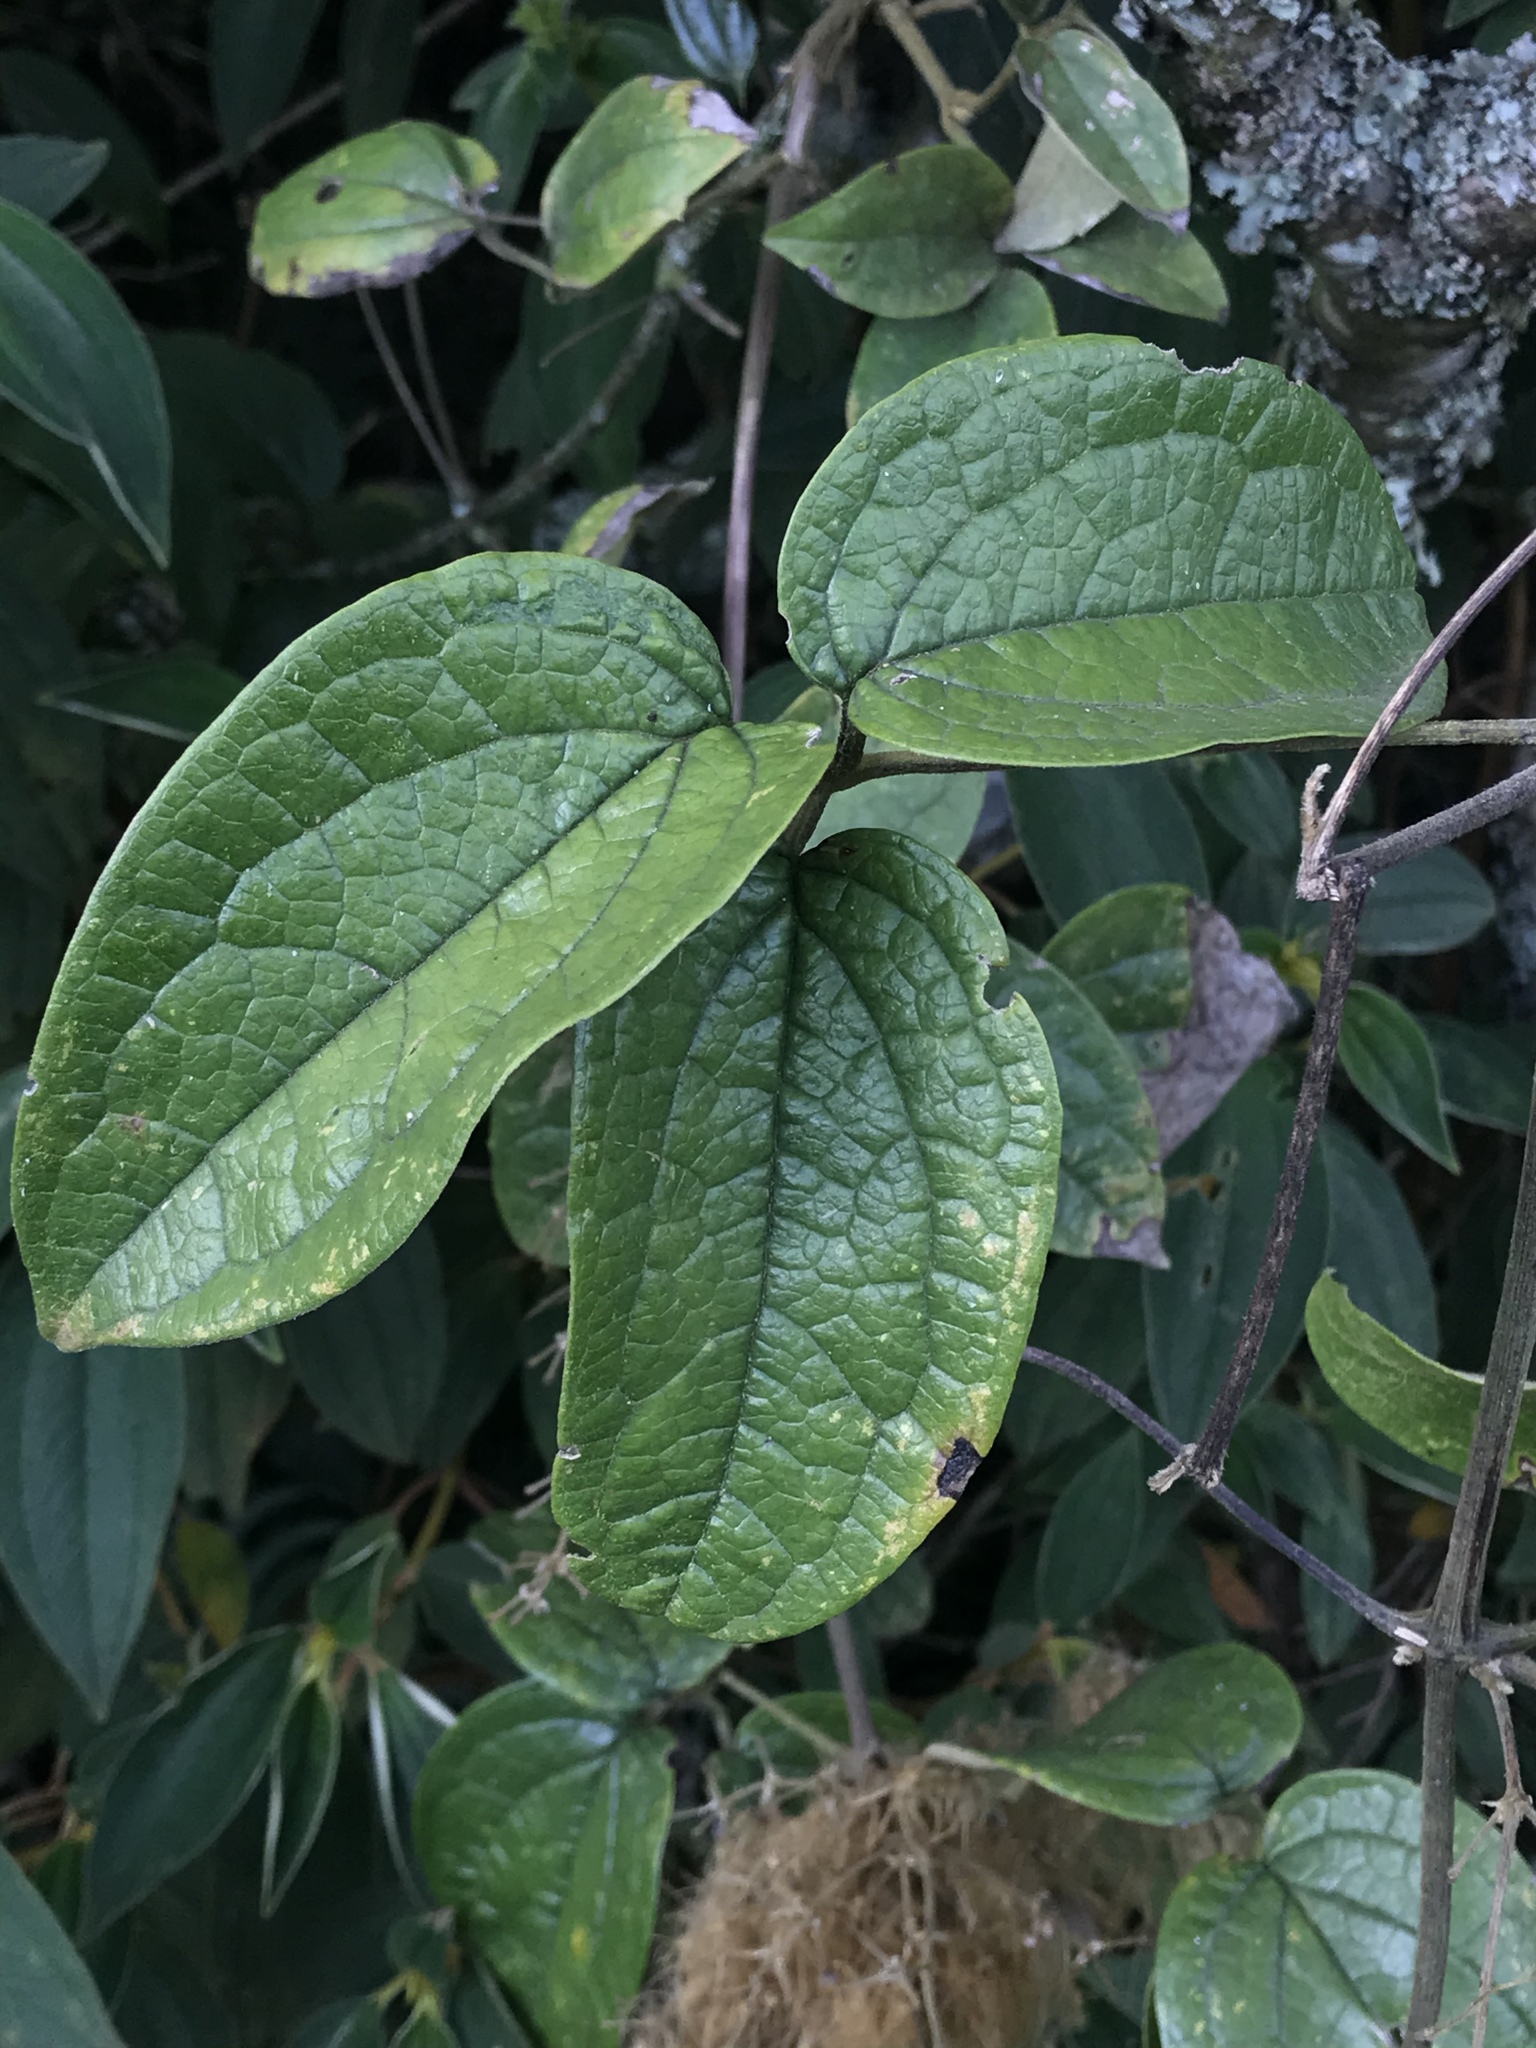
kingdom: Plantae
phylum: Tracheophyta
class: Magnoliopsida
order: Ranunculales
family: Ranunculaceae
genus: Clematis
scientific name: Clematis haenkeana
